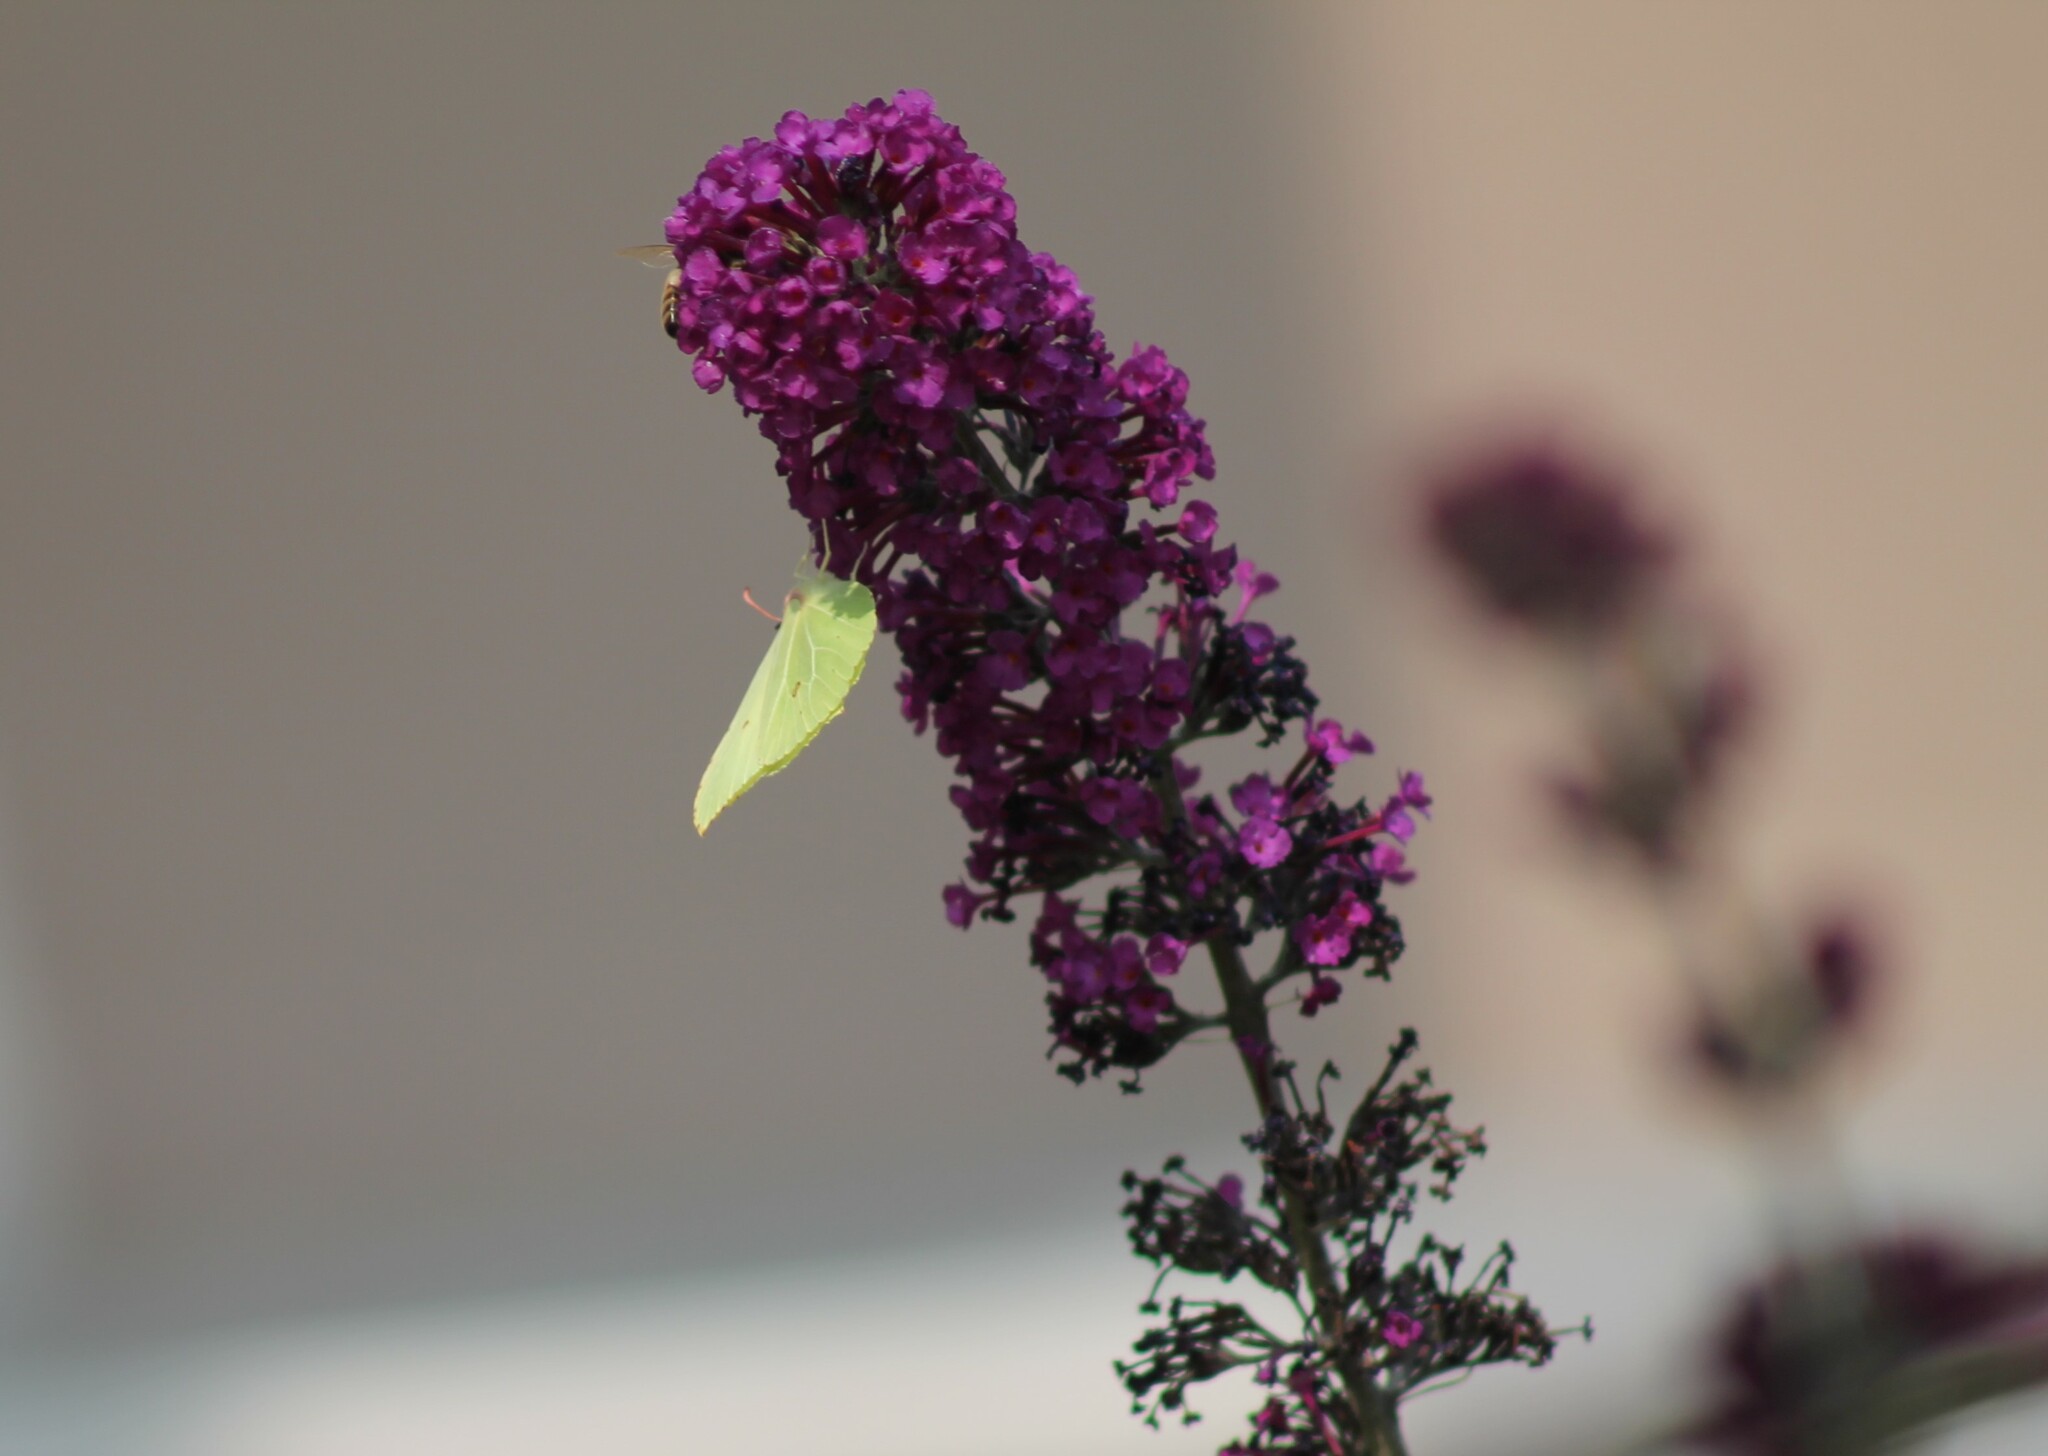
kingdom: Animalia
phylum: Arthropoda
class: Insecta
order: Lepidoptera
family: Pieridae
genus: Gonepteryx
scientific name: Gonepteryx rhamni
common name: Brimstone
